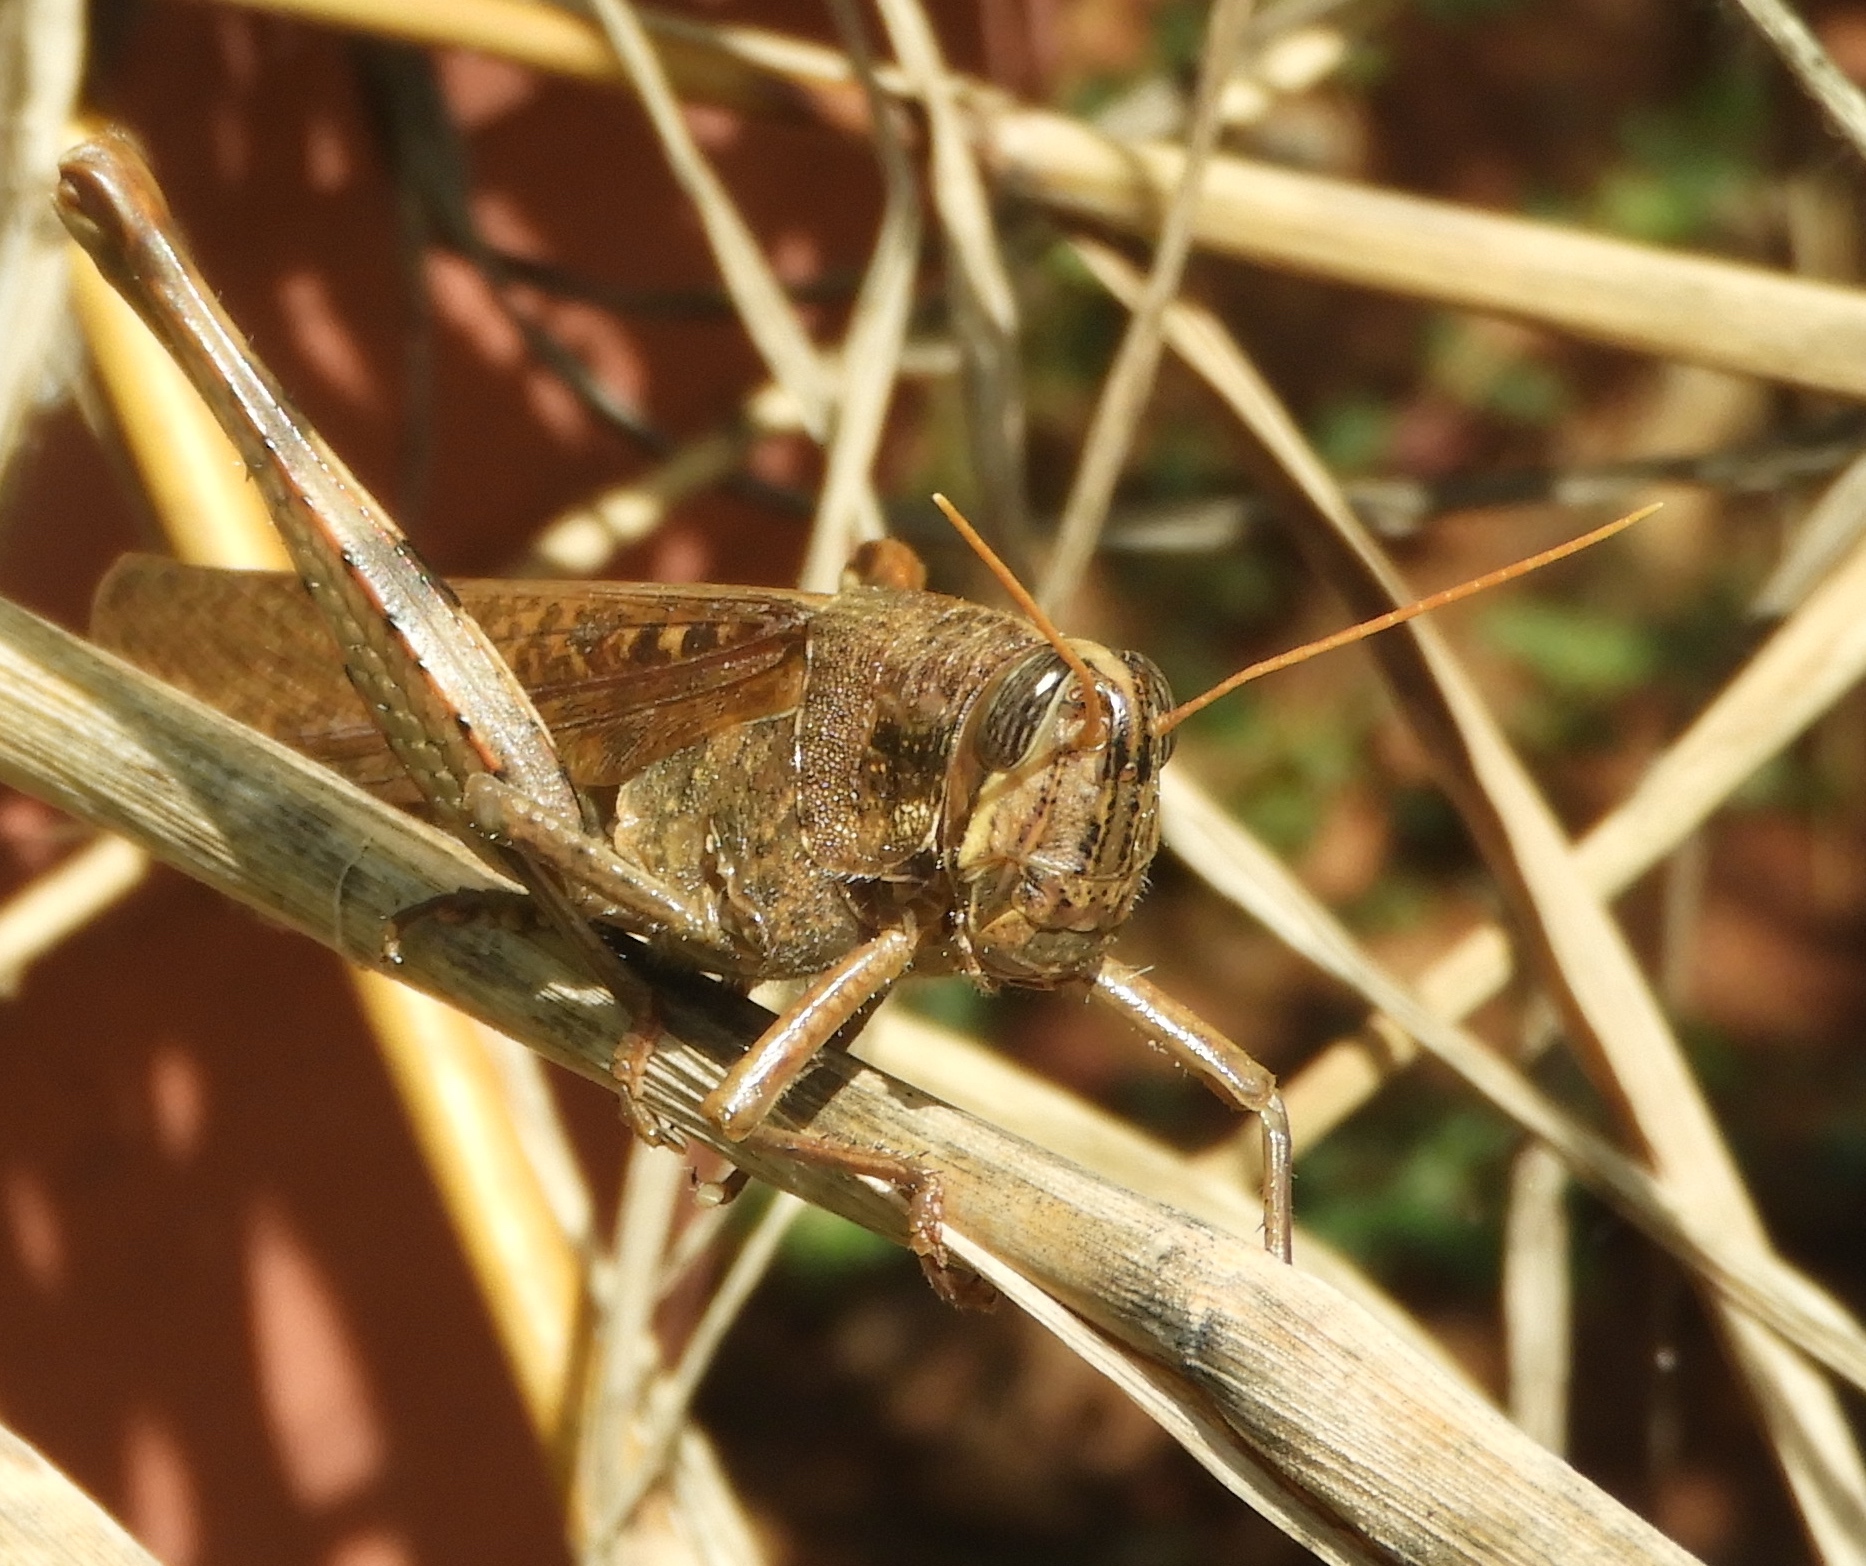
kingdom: Animalia
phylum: Arthropoda
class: Insecta
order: Orthoptera
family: Acrididae
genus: Schistocerca
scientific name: Schistocerca nitens
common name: Vagrant grasshopper
